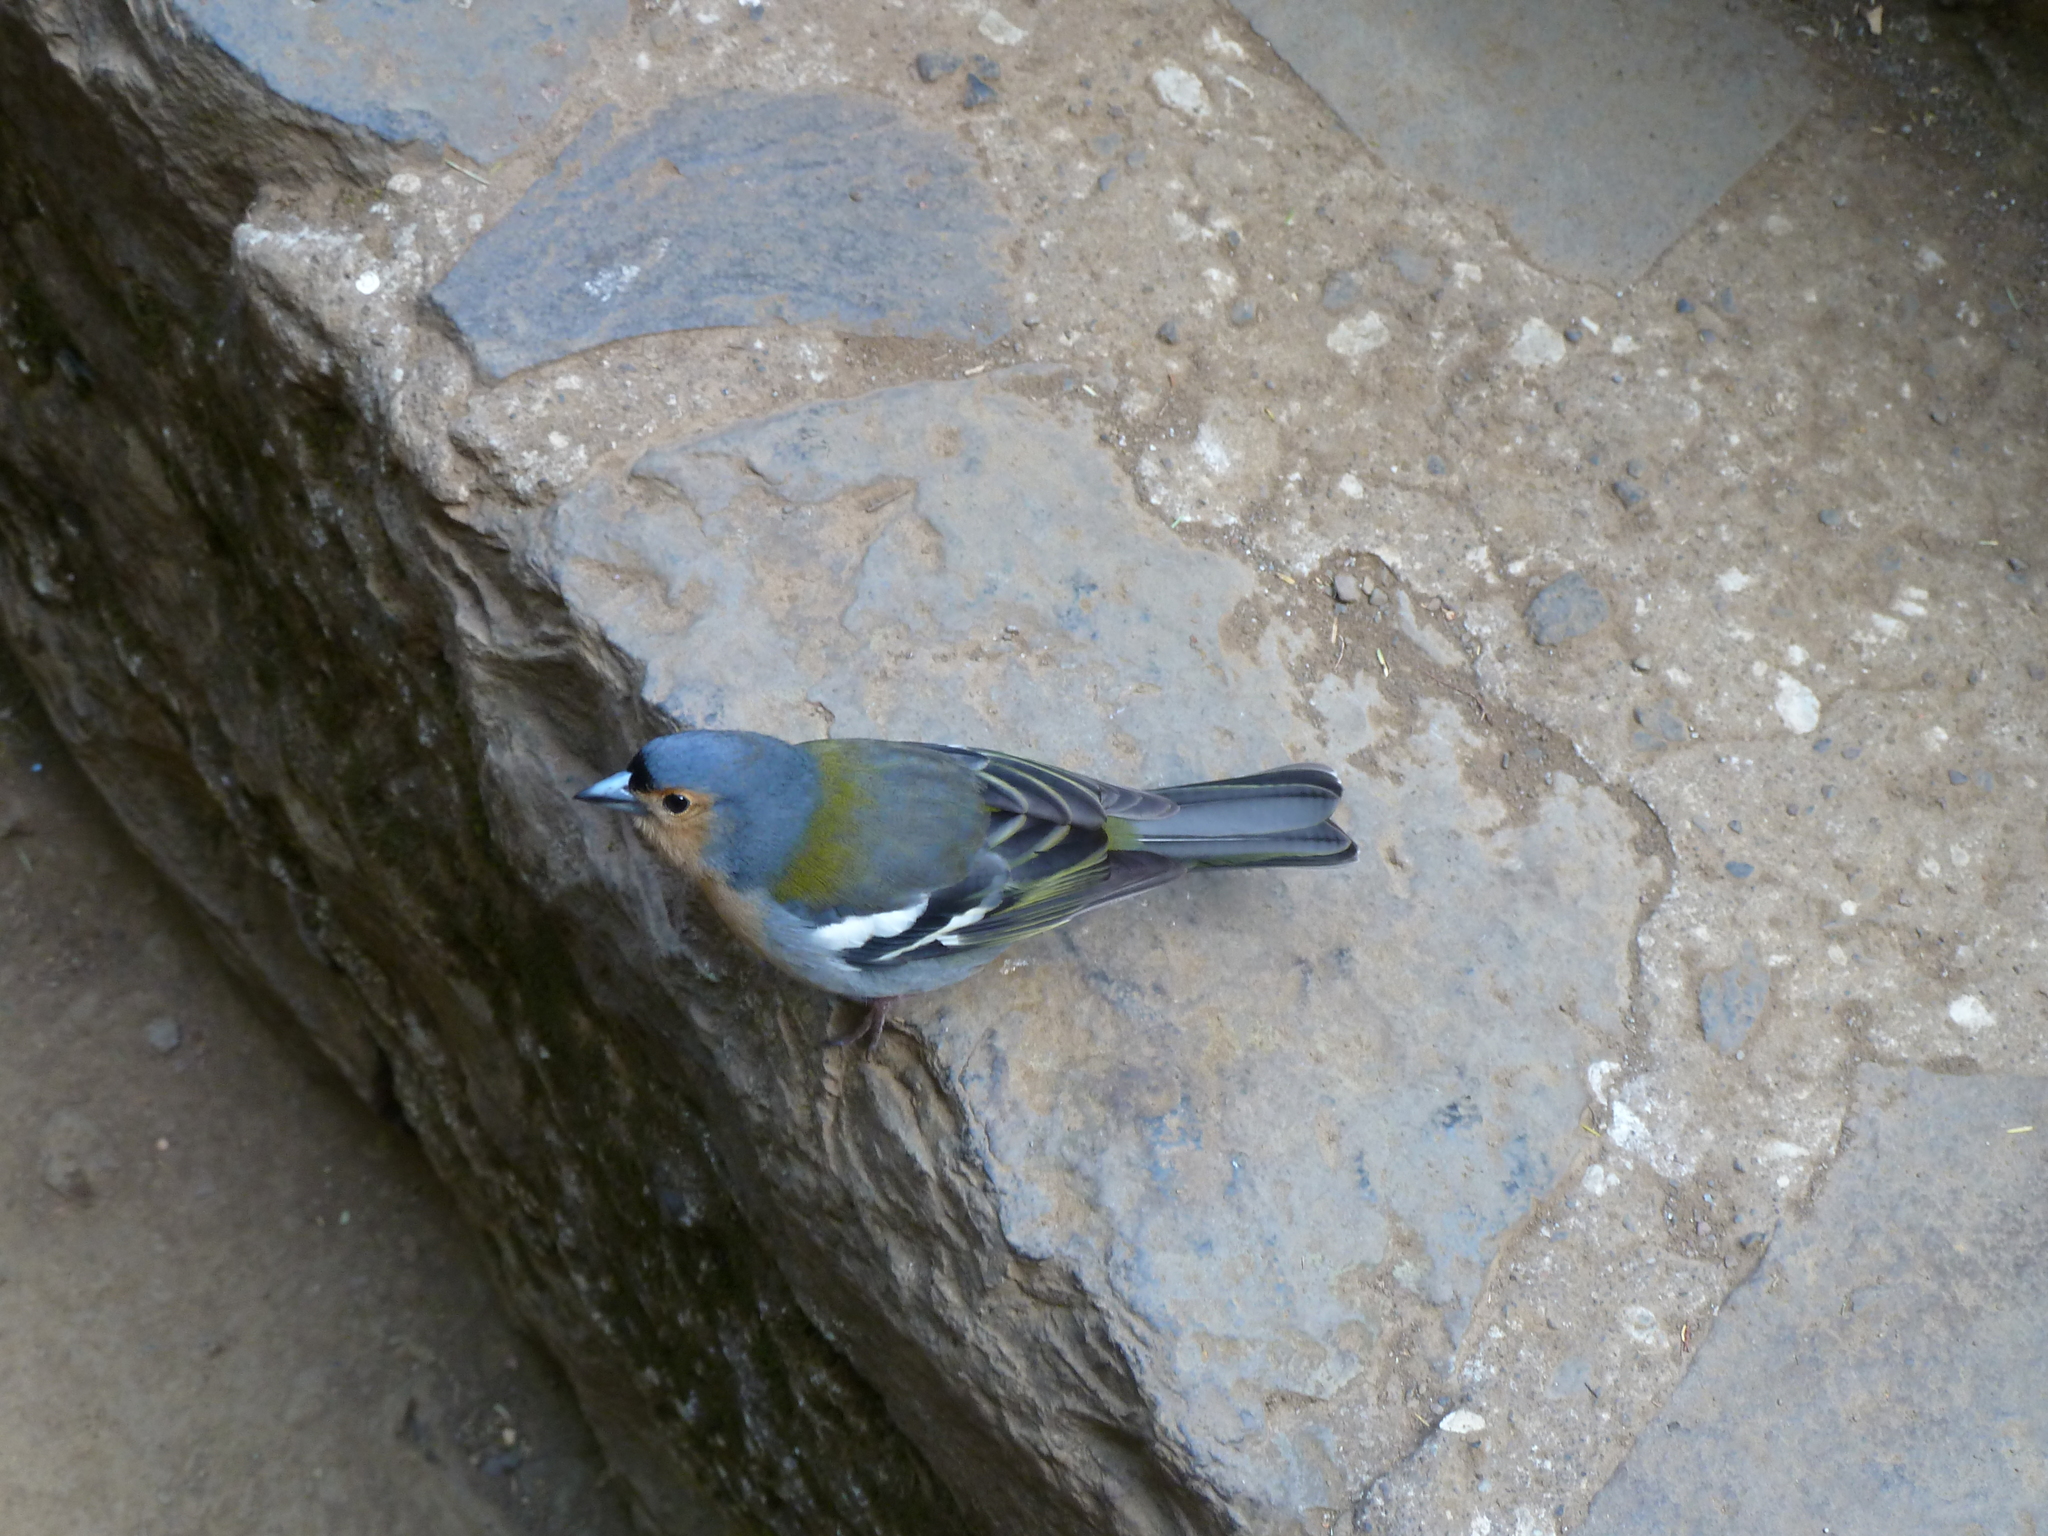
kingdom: Animalia
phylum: Chordata
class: Aves
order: Passeriformes
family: Fringillidae
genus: Fringilla
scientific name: Fringilla maderensis
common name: Madeira chaffinch
